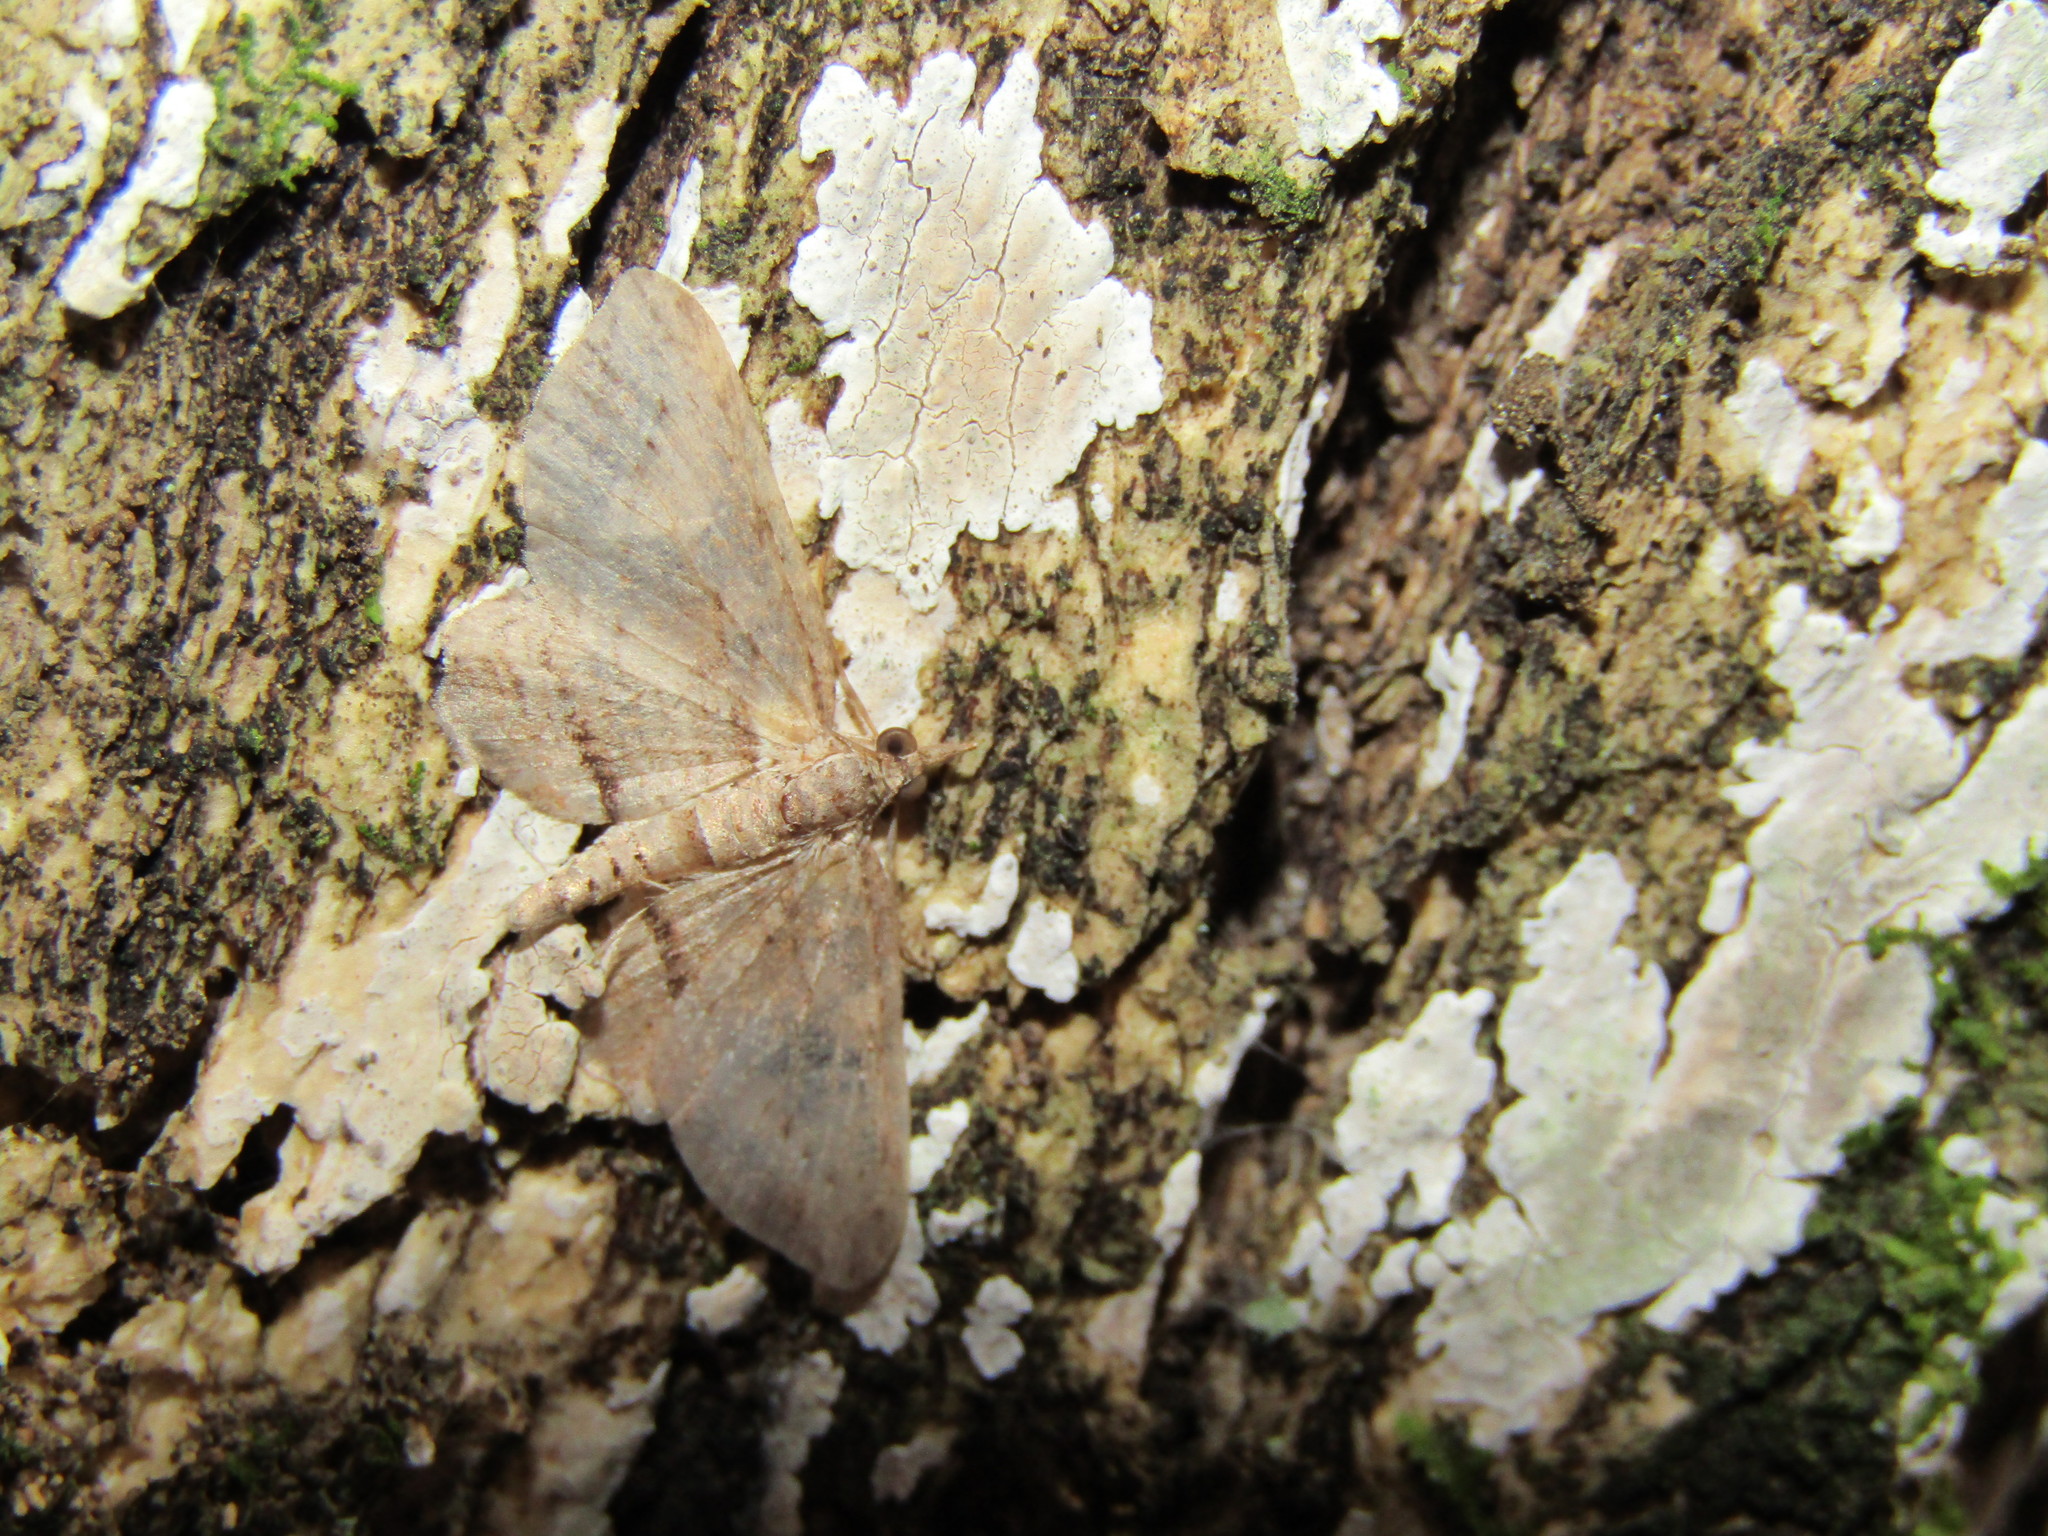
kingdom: Animalia
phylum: Arthropoda
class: Insecta
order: Lepidoptera
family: Geometridae
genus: Chloroclystis
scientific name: Chloroclystis filata
